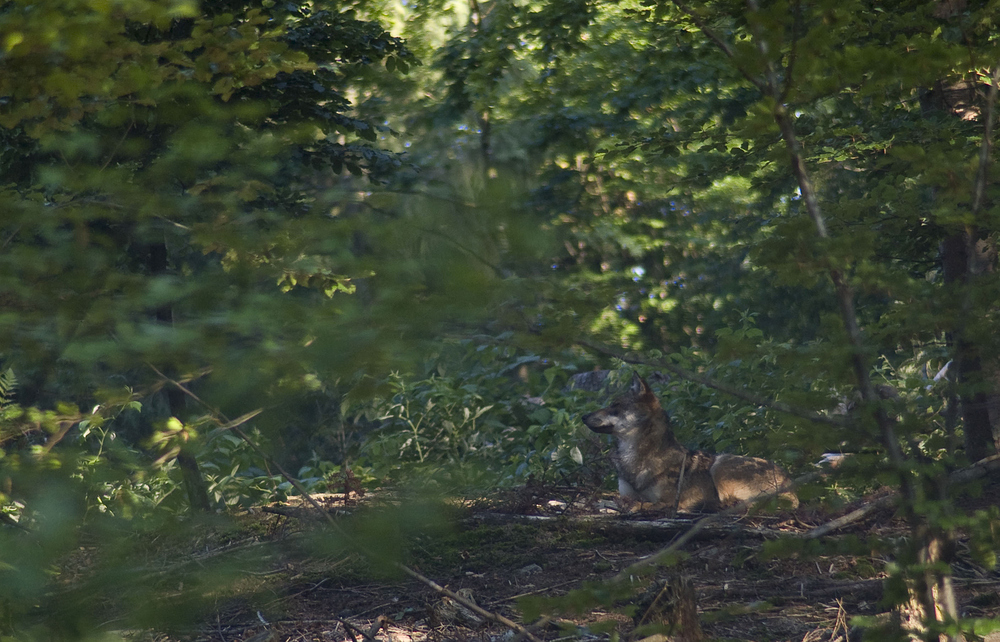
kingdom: Animalia
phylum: Chordata
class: Mammalia
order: Carnivora
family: Canidae
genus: Canis
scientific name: Canis lupus
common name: Gray wolf
